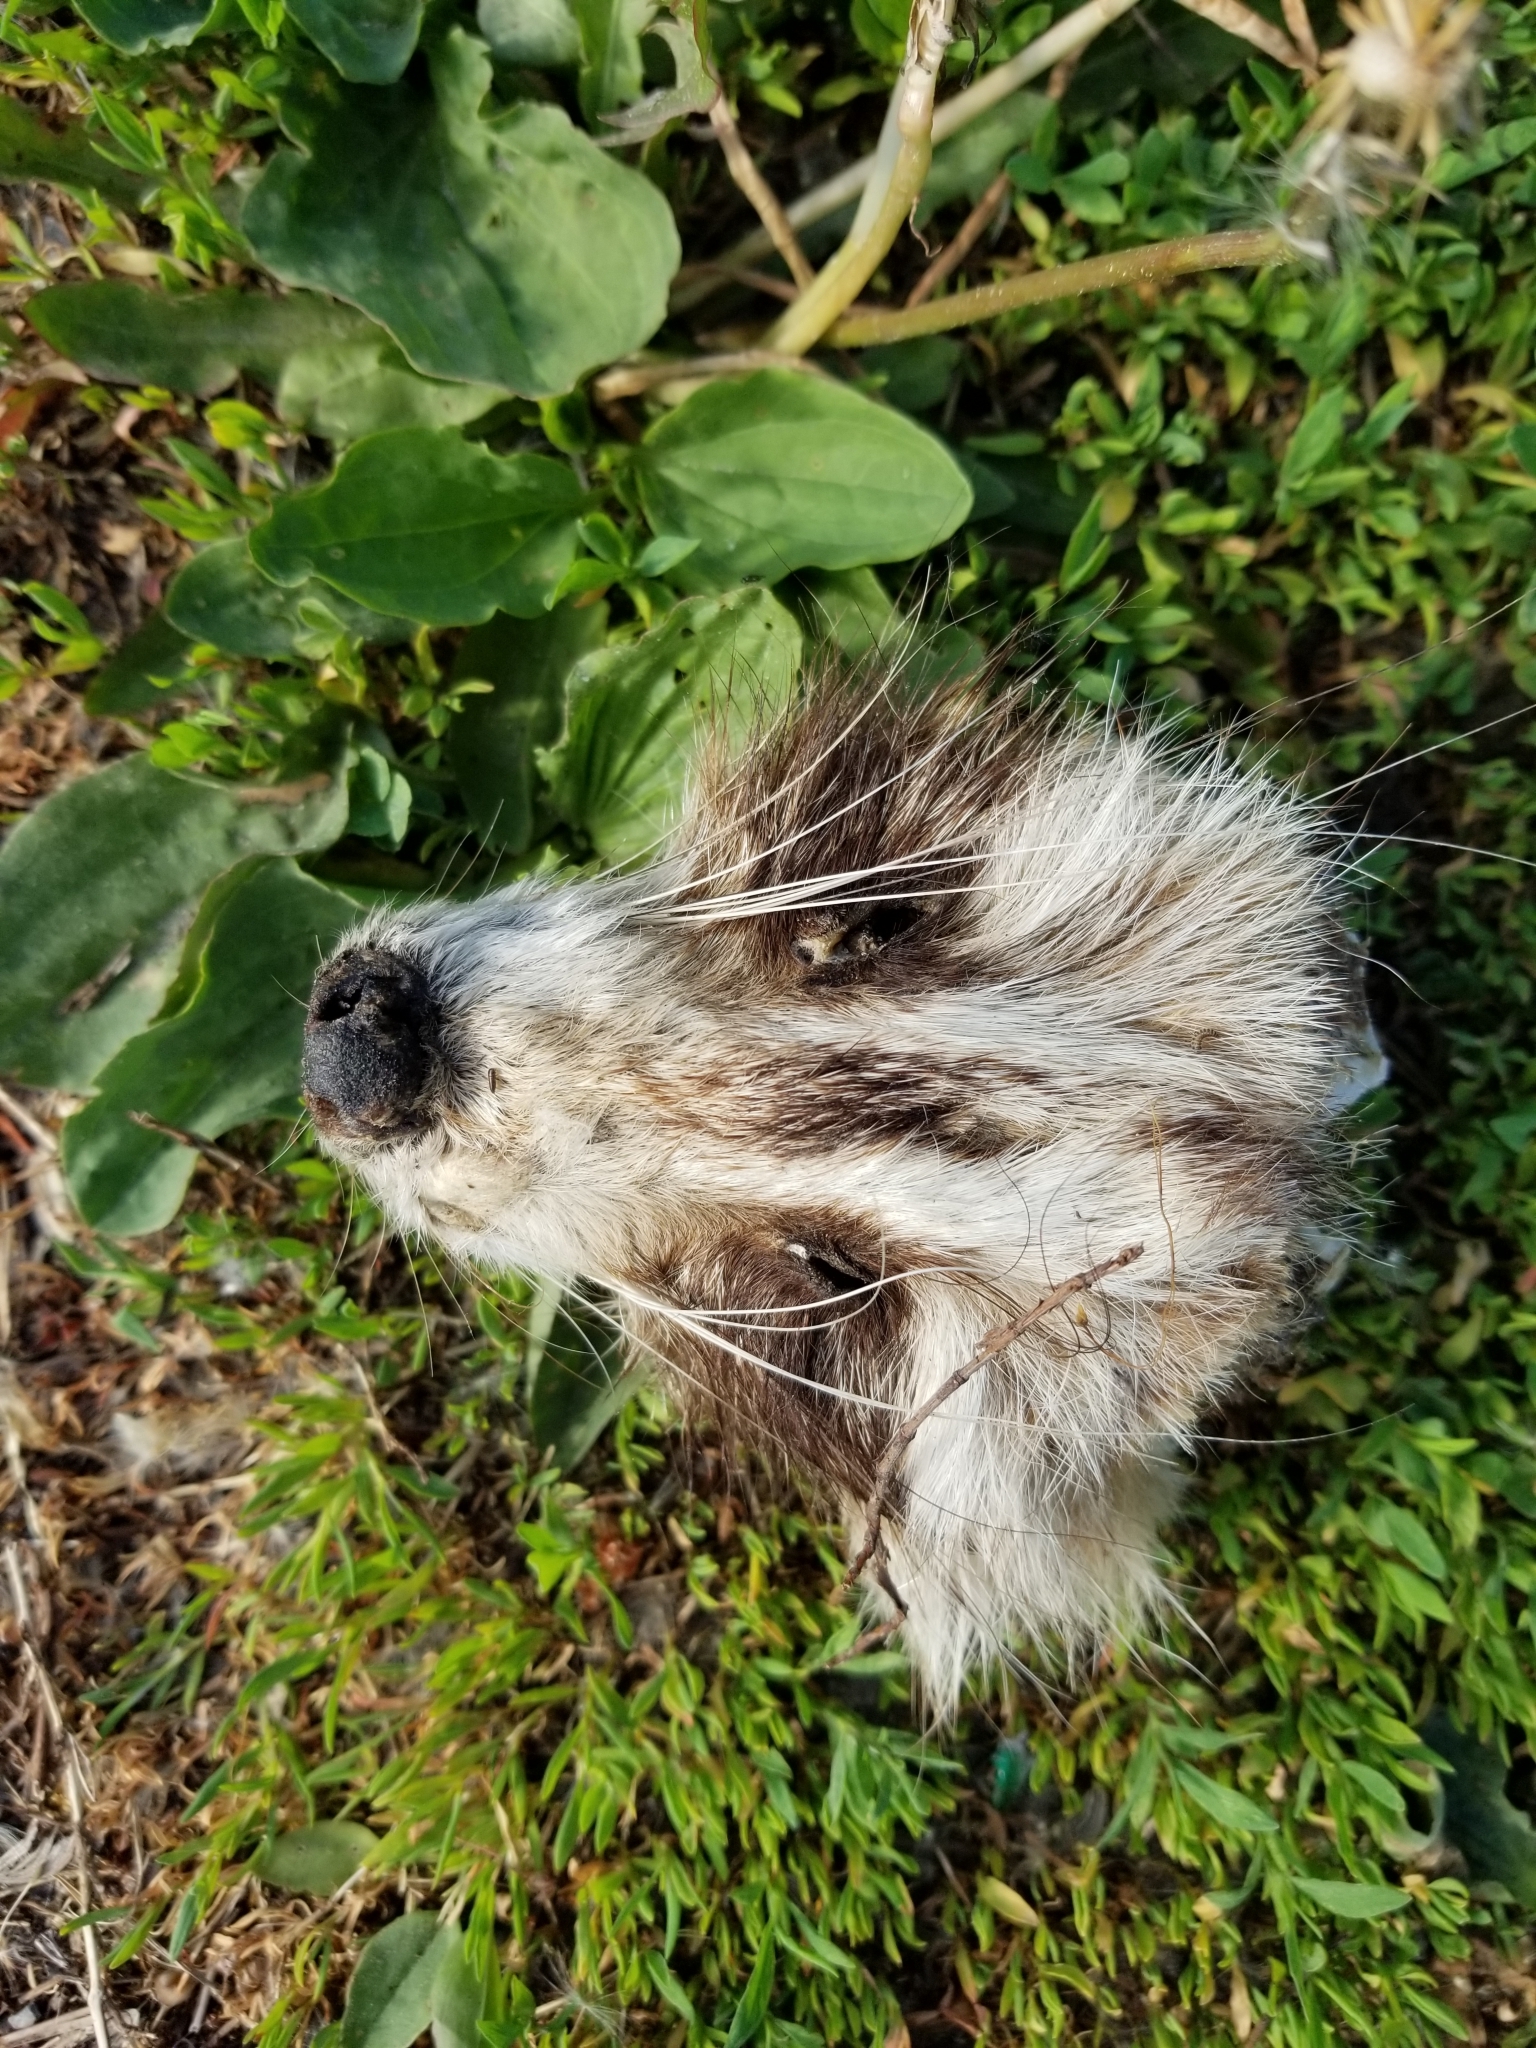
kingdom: Animalia
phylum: Chordata
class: Mammalia
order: Carnivora
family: Procyonidae
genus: Procyon
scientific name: Procyon lotor
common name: Raccoon
